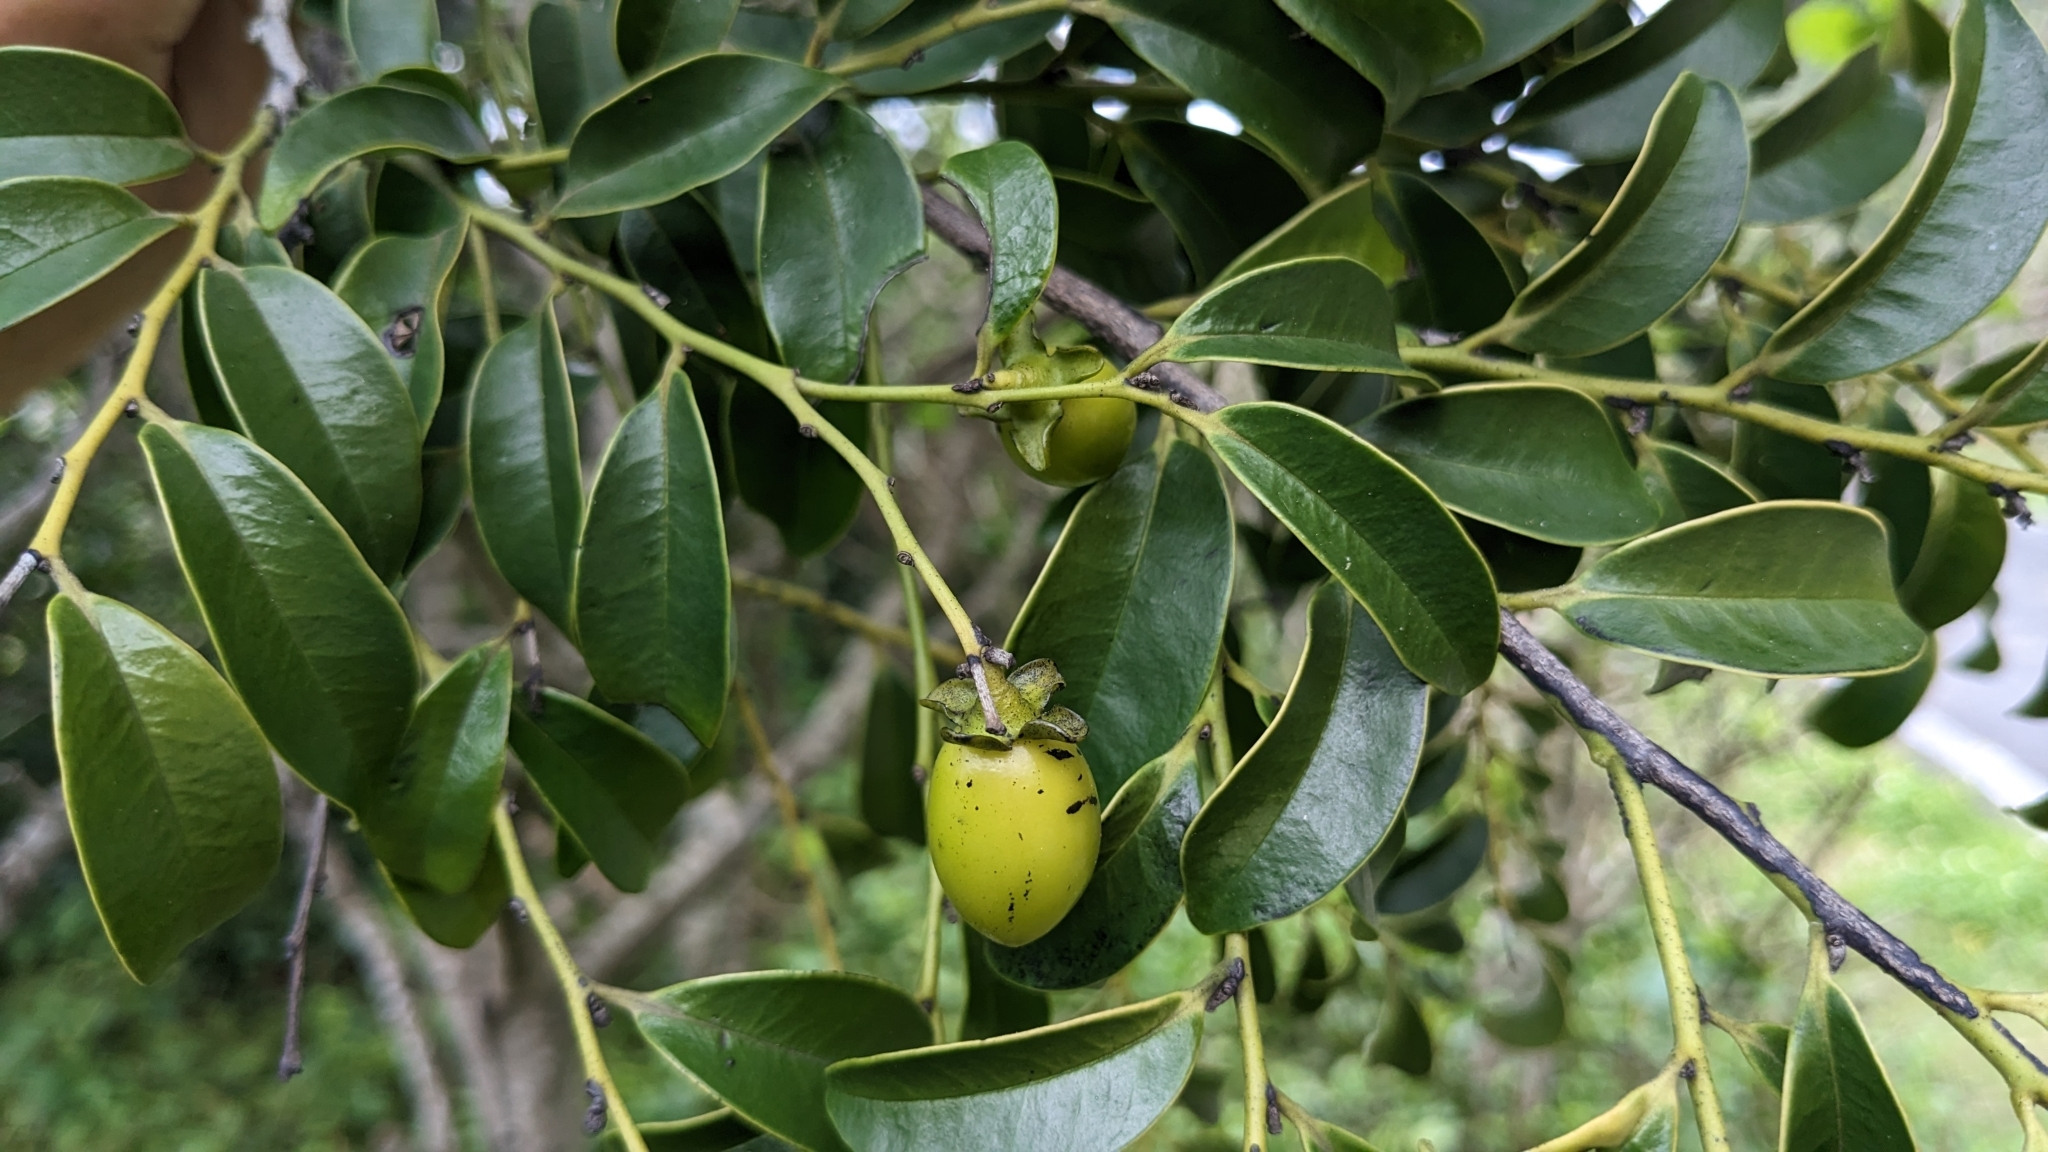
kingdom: Plantae
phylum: Tracheophyta
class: Magnoliopsida
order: Ericales
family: Ebenaceae
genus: Diospyros
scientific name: Diospyros kotoensis
